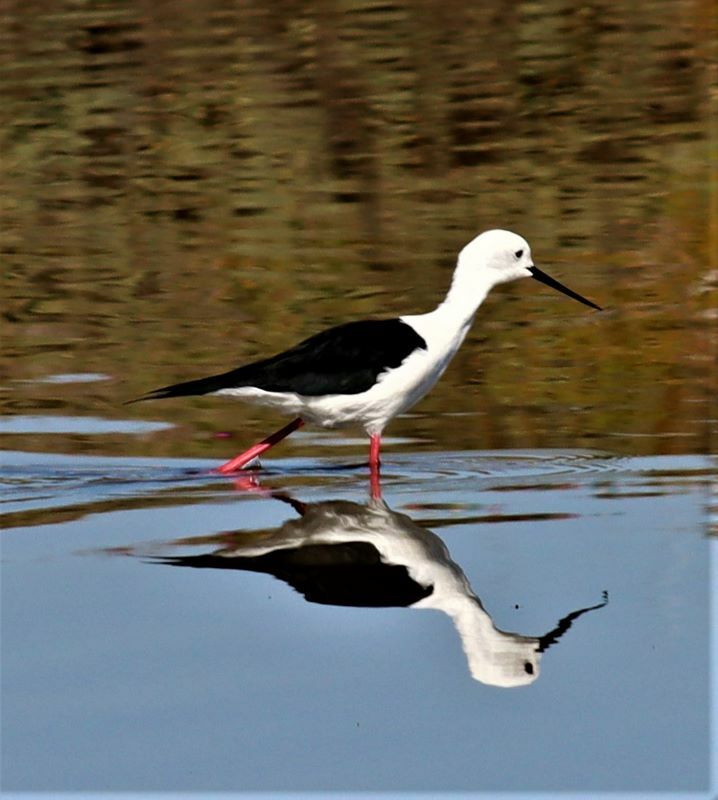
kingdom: Animalia
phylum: Chordata
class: Aves
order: Charadriiformes
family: Recurvirostridae
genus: Himantopus
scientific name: Himantopus himantopus
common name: Black-winged stilt
